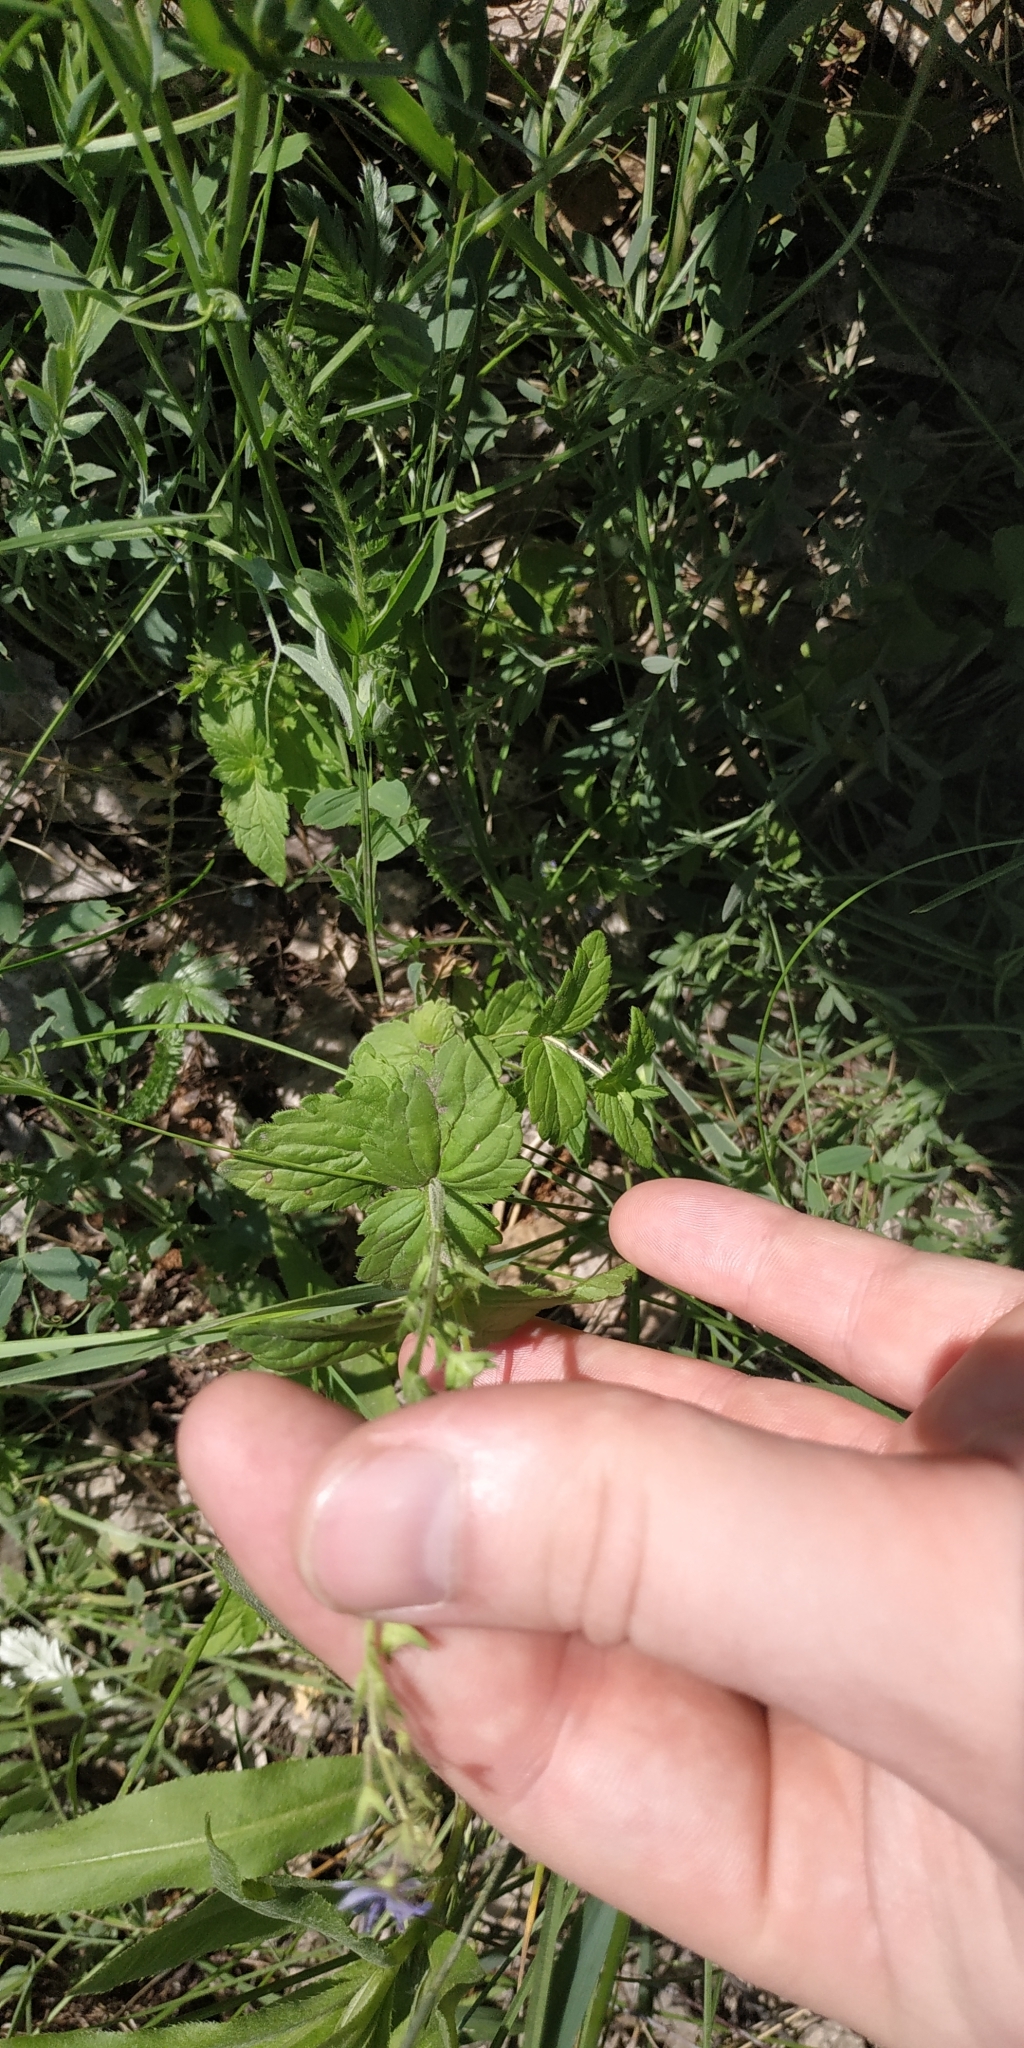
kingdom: Plantae
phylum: Tracheophyta
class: Magnoliopsida
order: Lamiales
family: Plantaginaceae
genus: Veronica
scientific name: Veronica chamaedrys
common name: Germander speedwell
